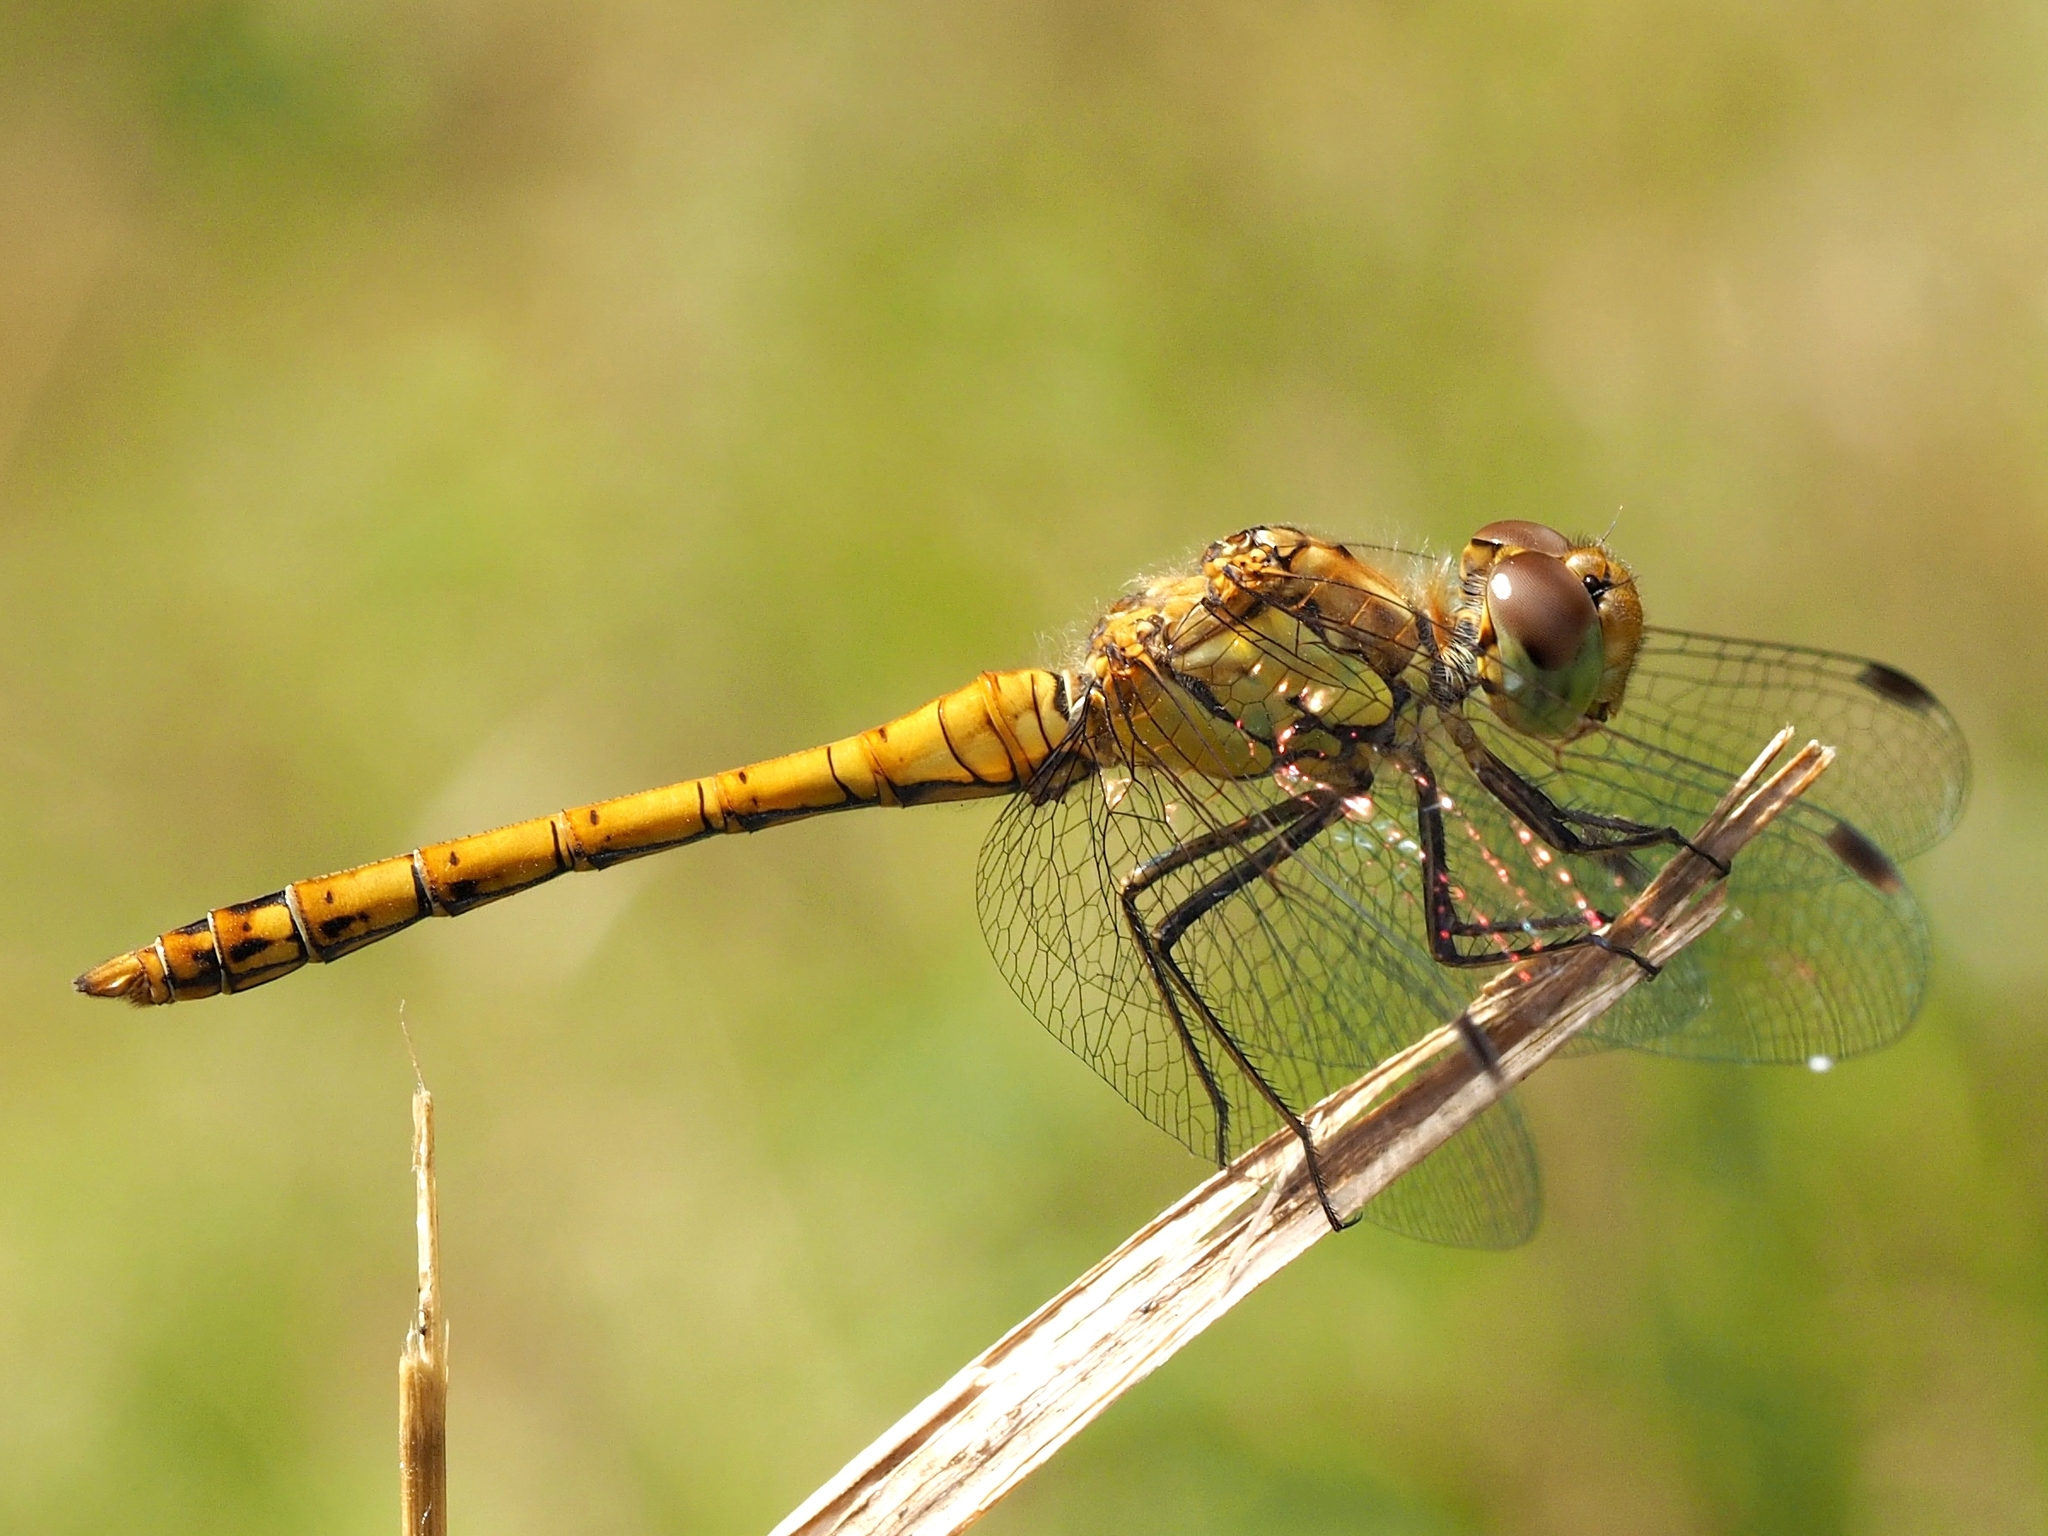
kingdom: Animalia
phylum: Arthropoda
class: Insecta
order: Odonata
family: Libellulidae
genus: Sympetrum
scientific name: Sympetrum striolatum
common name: Common darter
